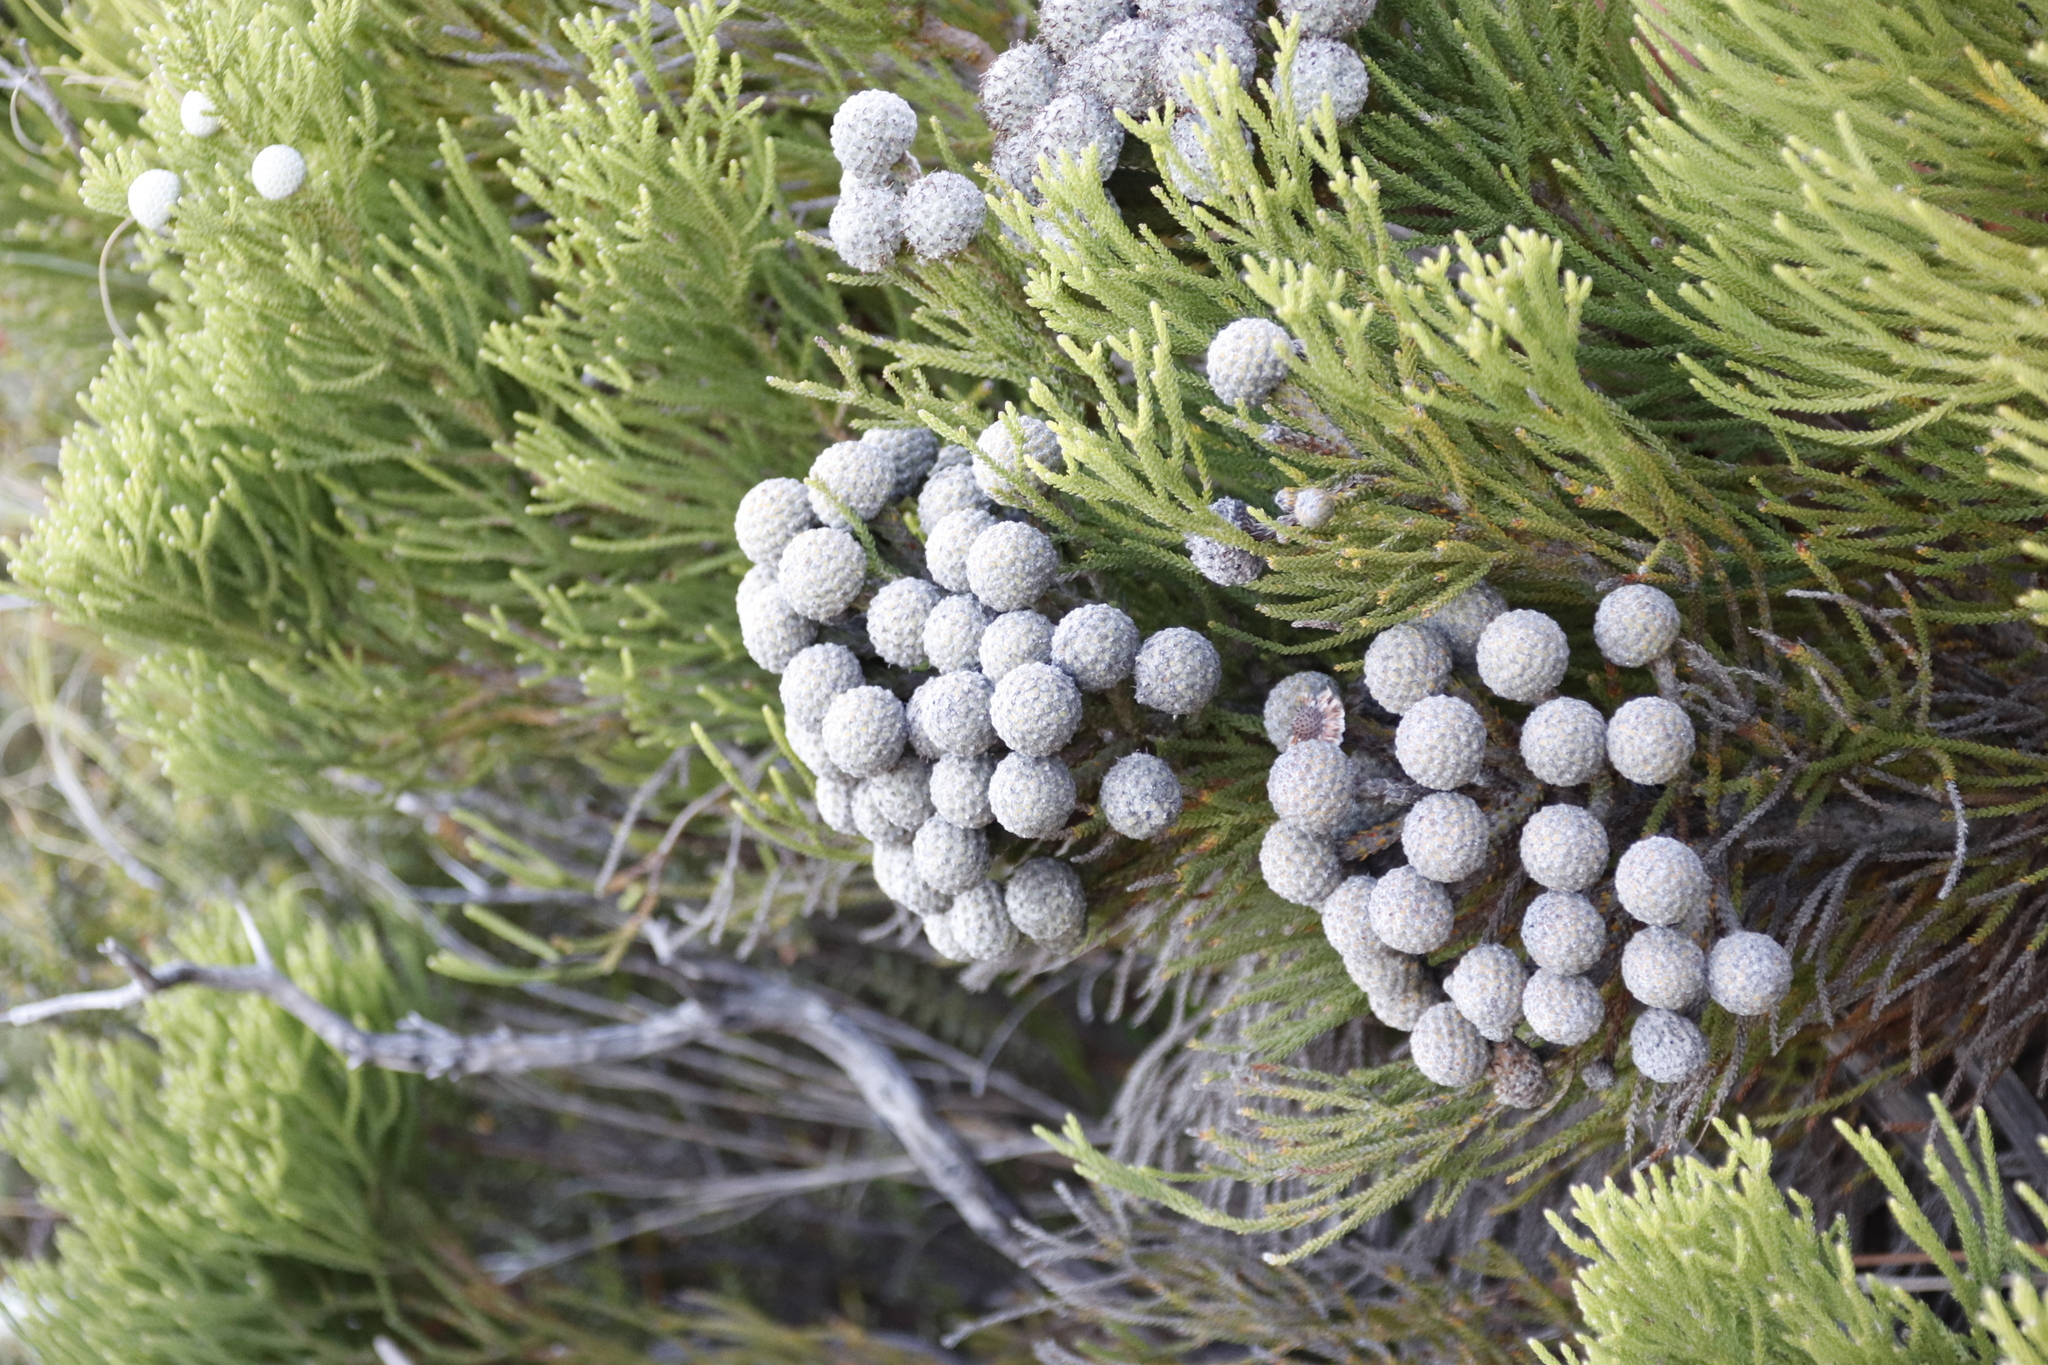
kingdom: Plantae
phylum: Tracheophyta
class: Magnoliopsida
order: Bruniales
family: Bruniaceae
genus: Brunia
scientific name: Brunia noduliflora
